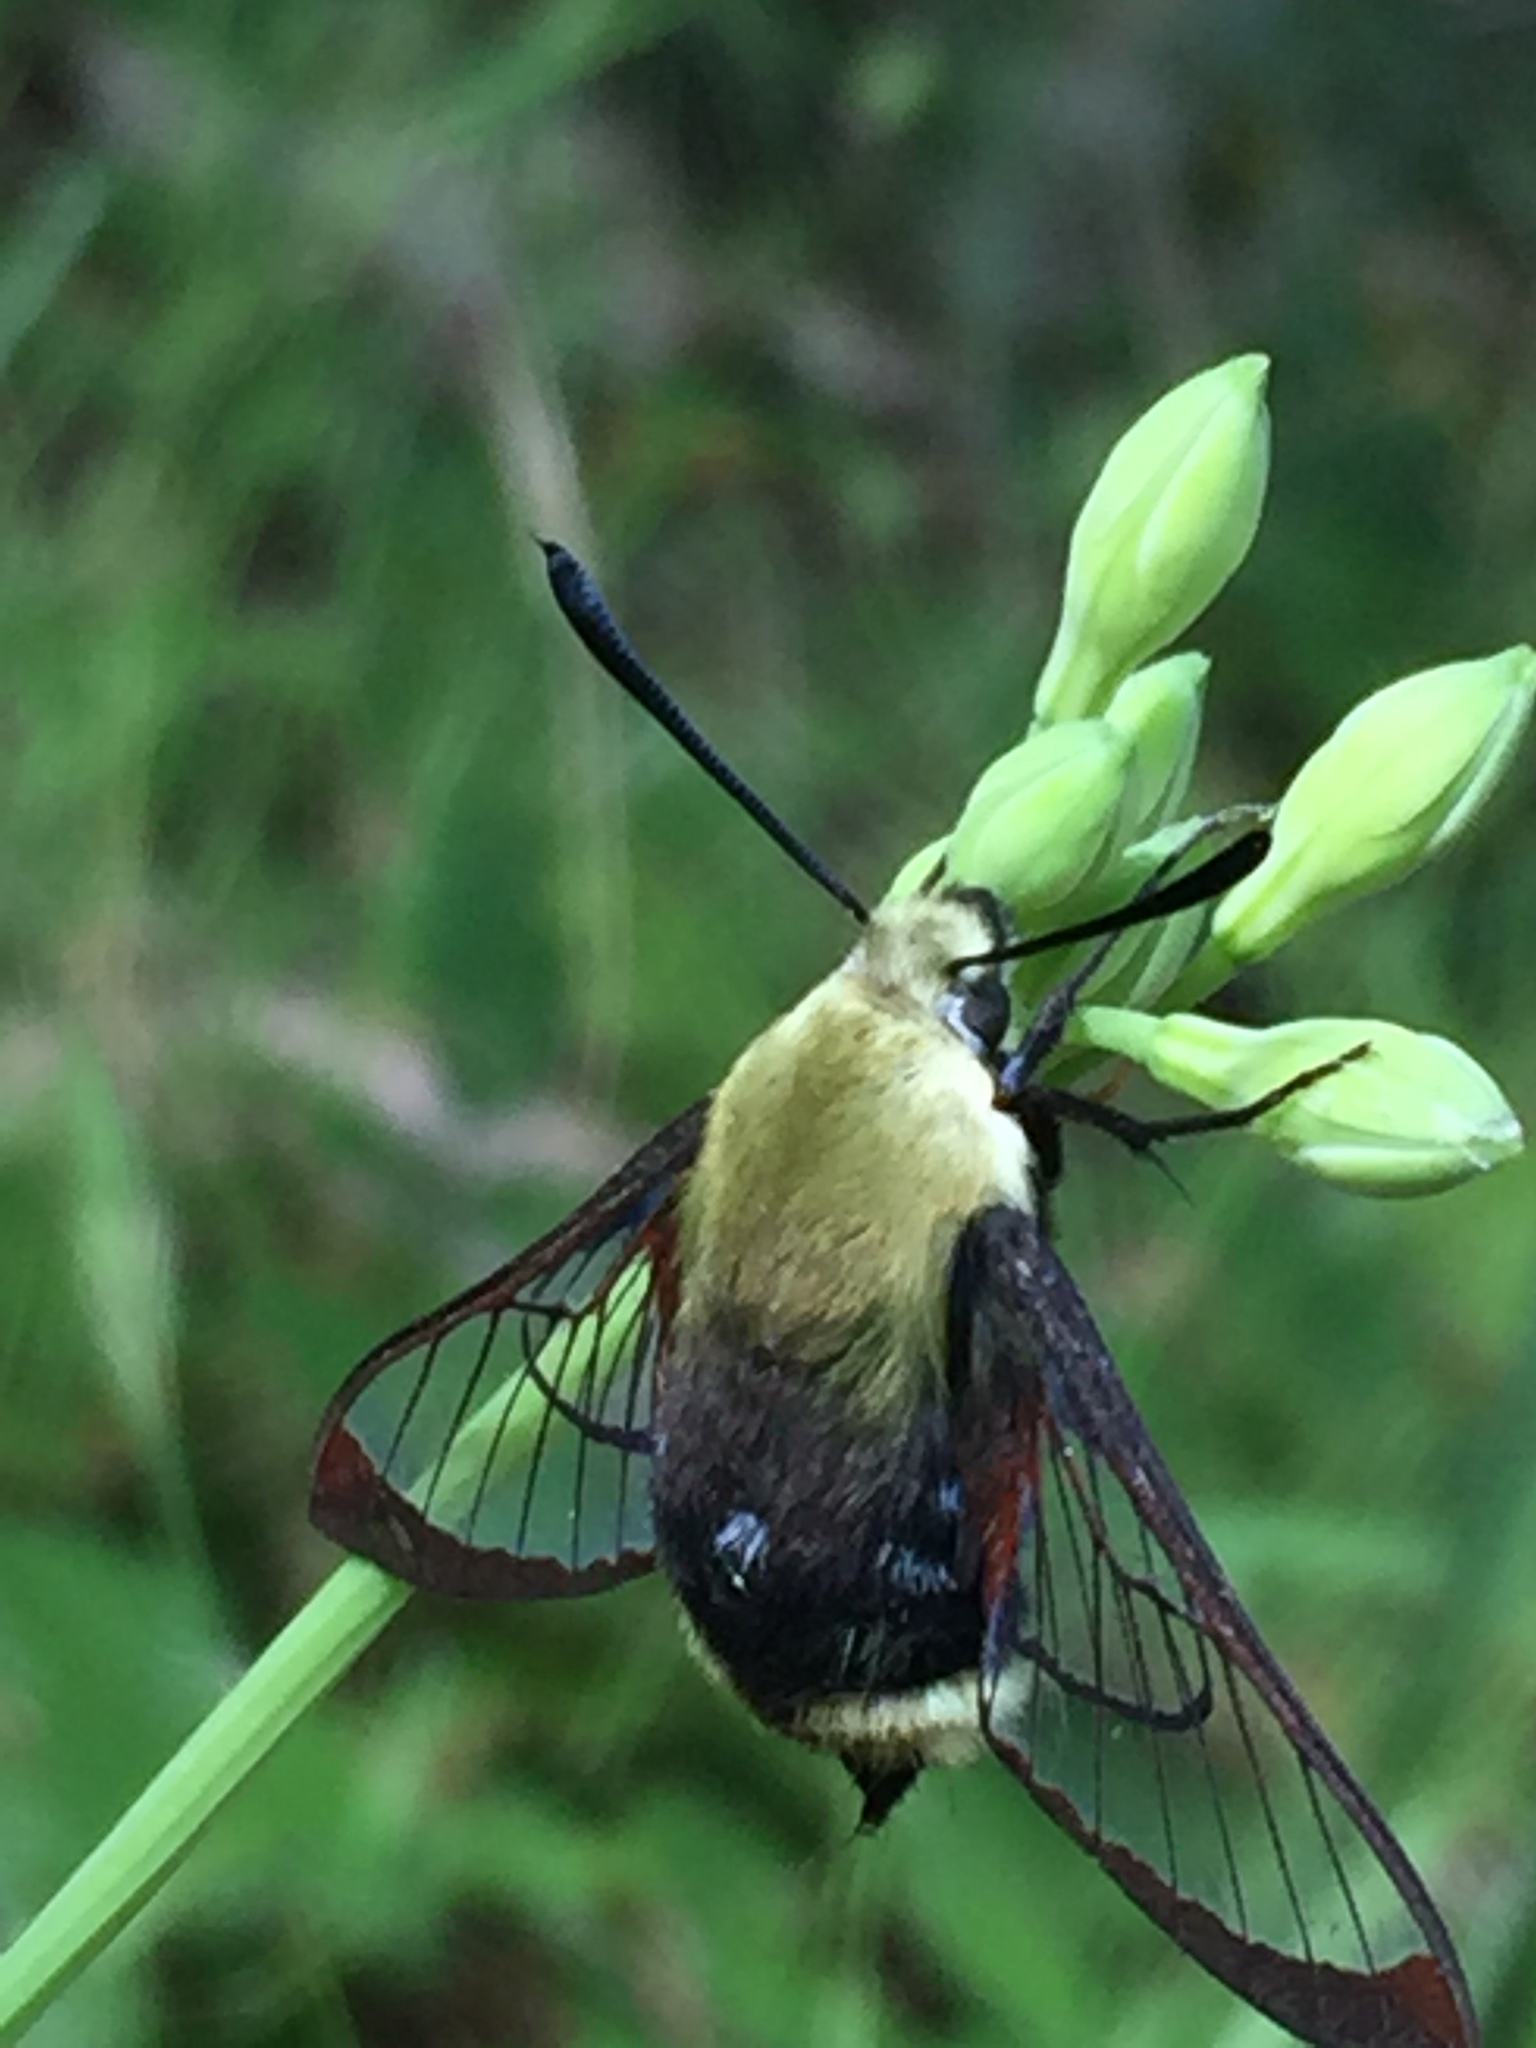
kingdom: Animalia
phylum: Arthropoda
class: Insecta
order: Lepidoptera
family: Sphingidae
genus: Hemaris
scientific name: Hemaris thetis
